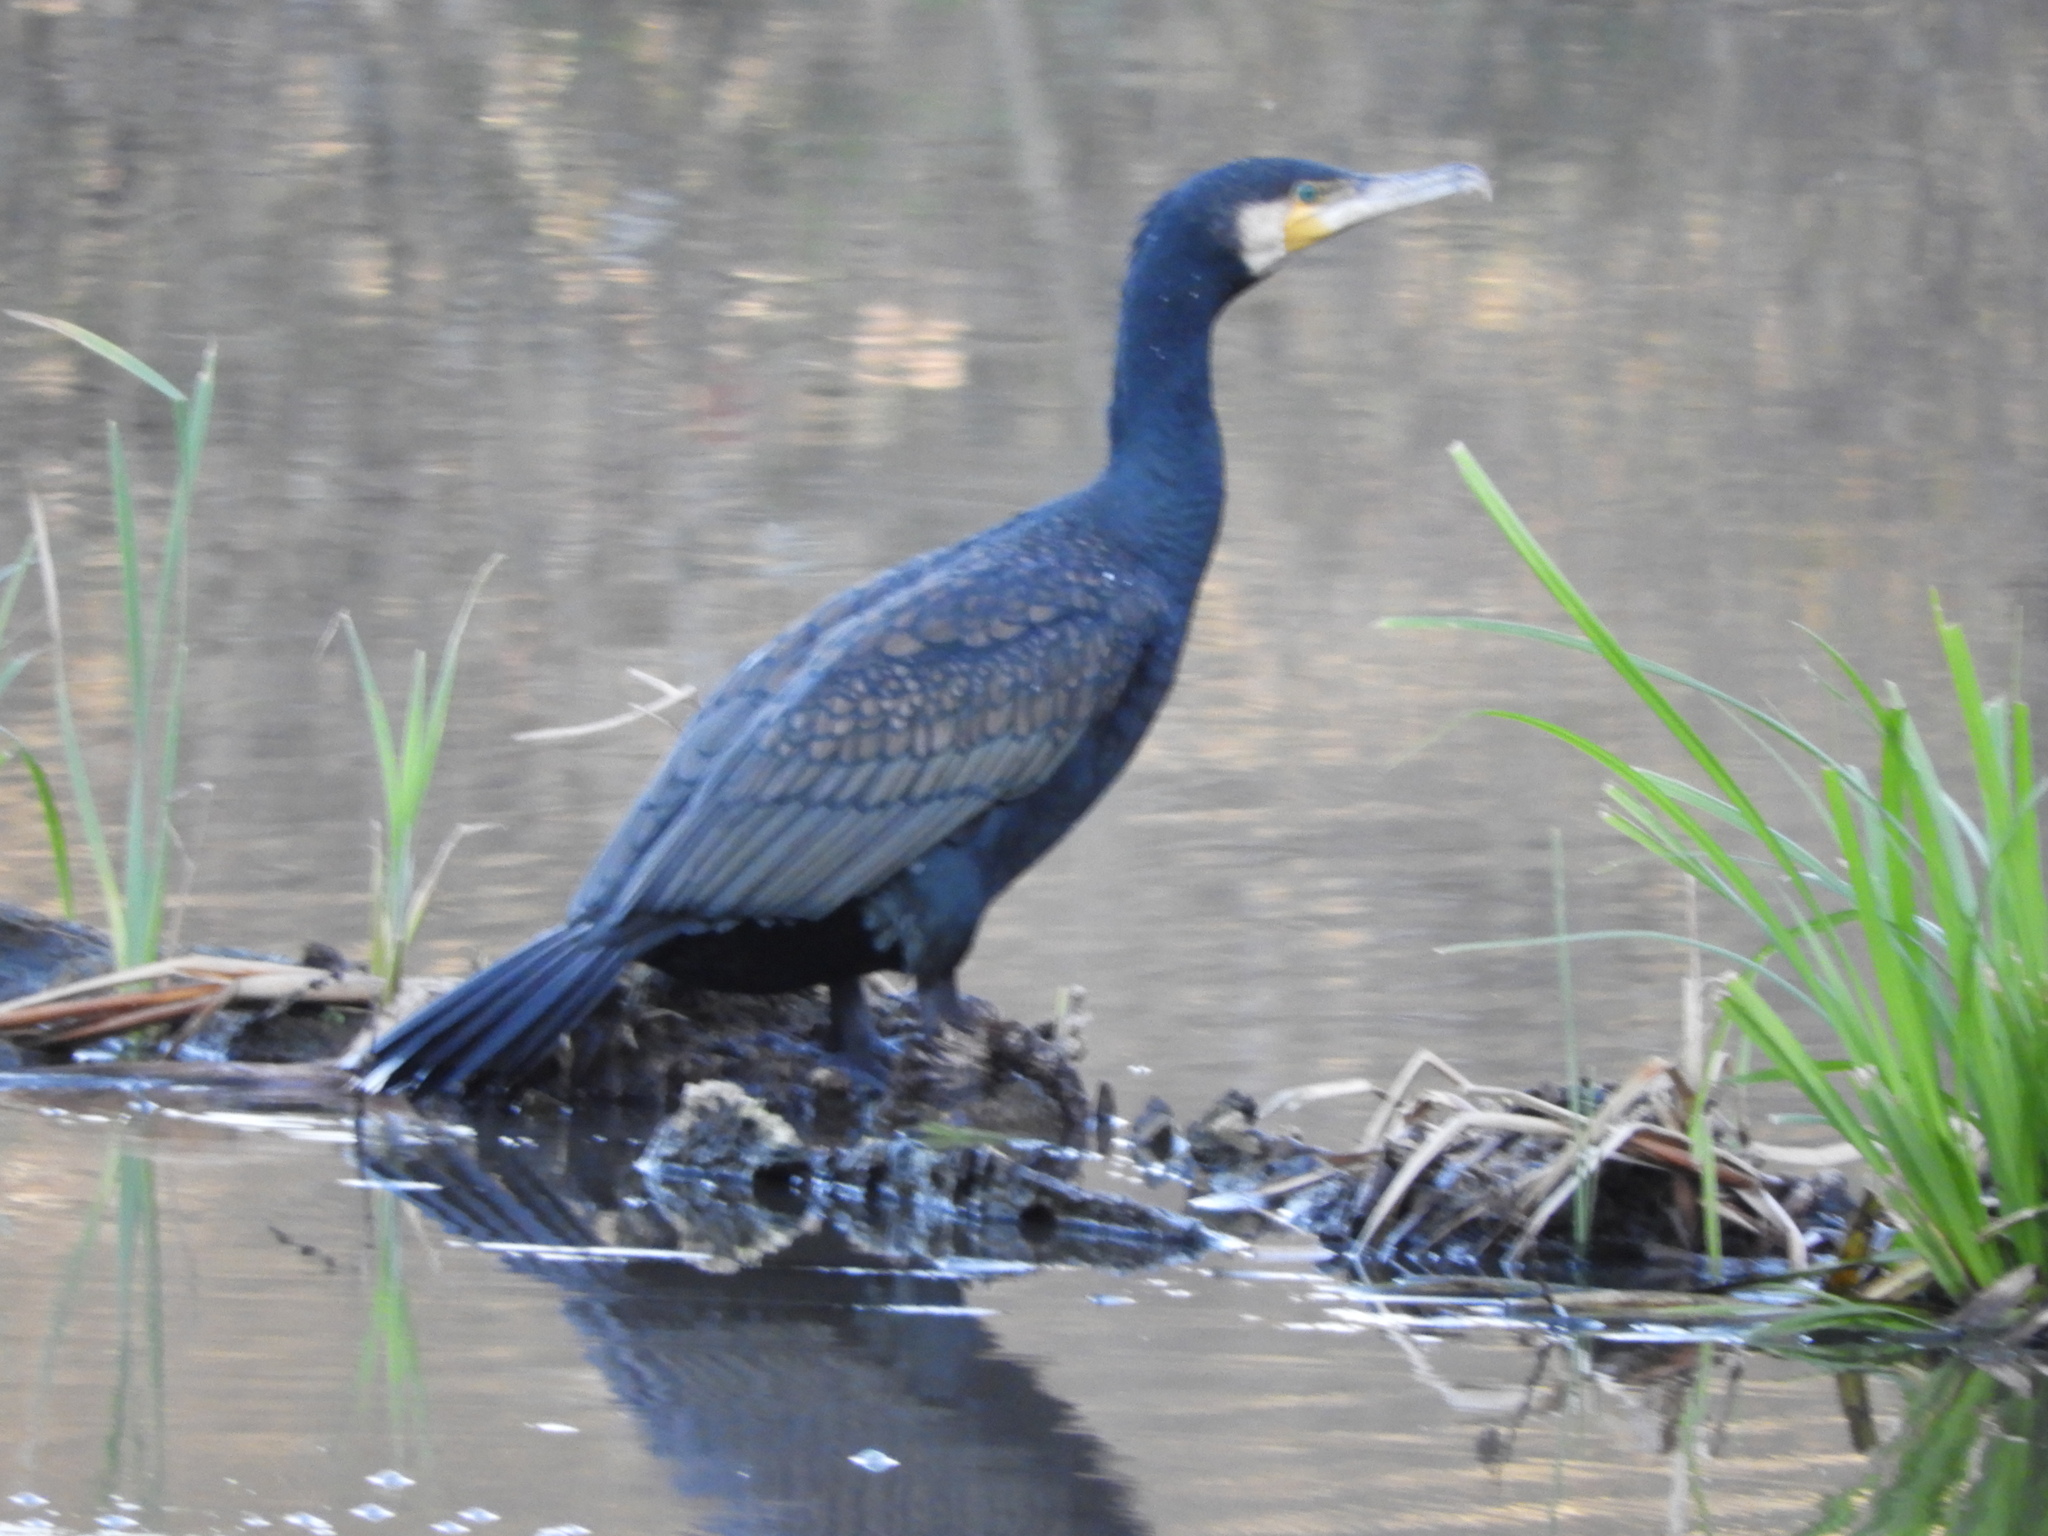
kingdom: Animalia
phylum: Chordata
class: Aves
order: Suliformes
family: Phalacrocoracidae
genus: Phalacrocorax
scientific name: Phalacrocorax carbo
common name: Great cormorant
